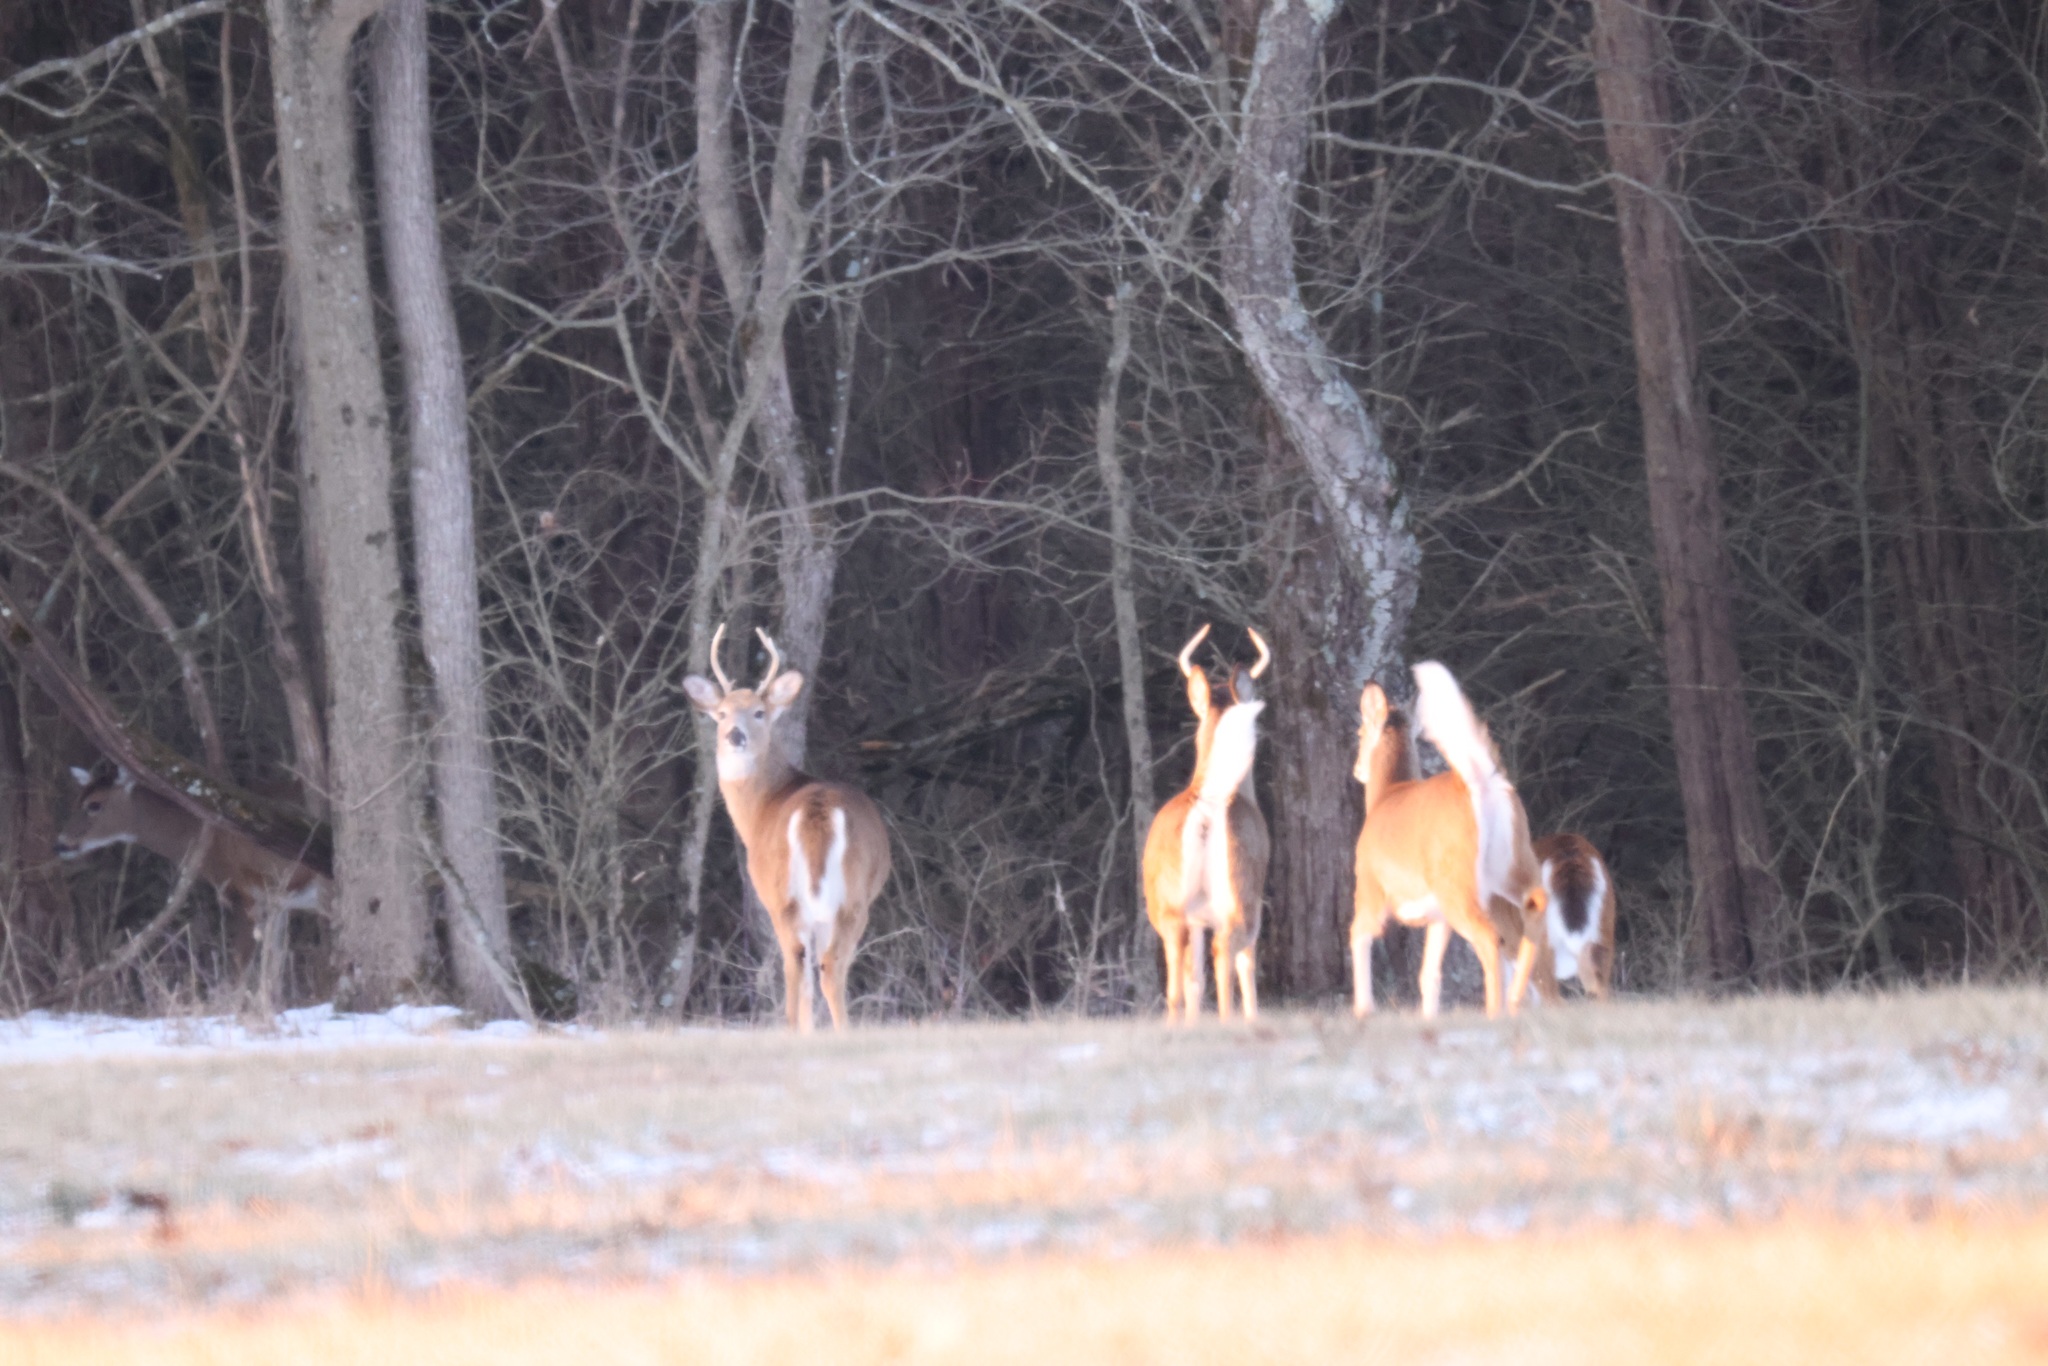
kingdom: Animalia
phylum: Chordata
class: Mammalia
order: Artiodactyla
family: Cervidae
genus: Odocoileus
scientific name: Odocoileus virginianus
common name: White-tailed deer
